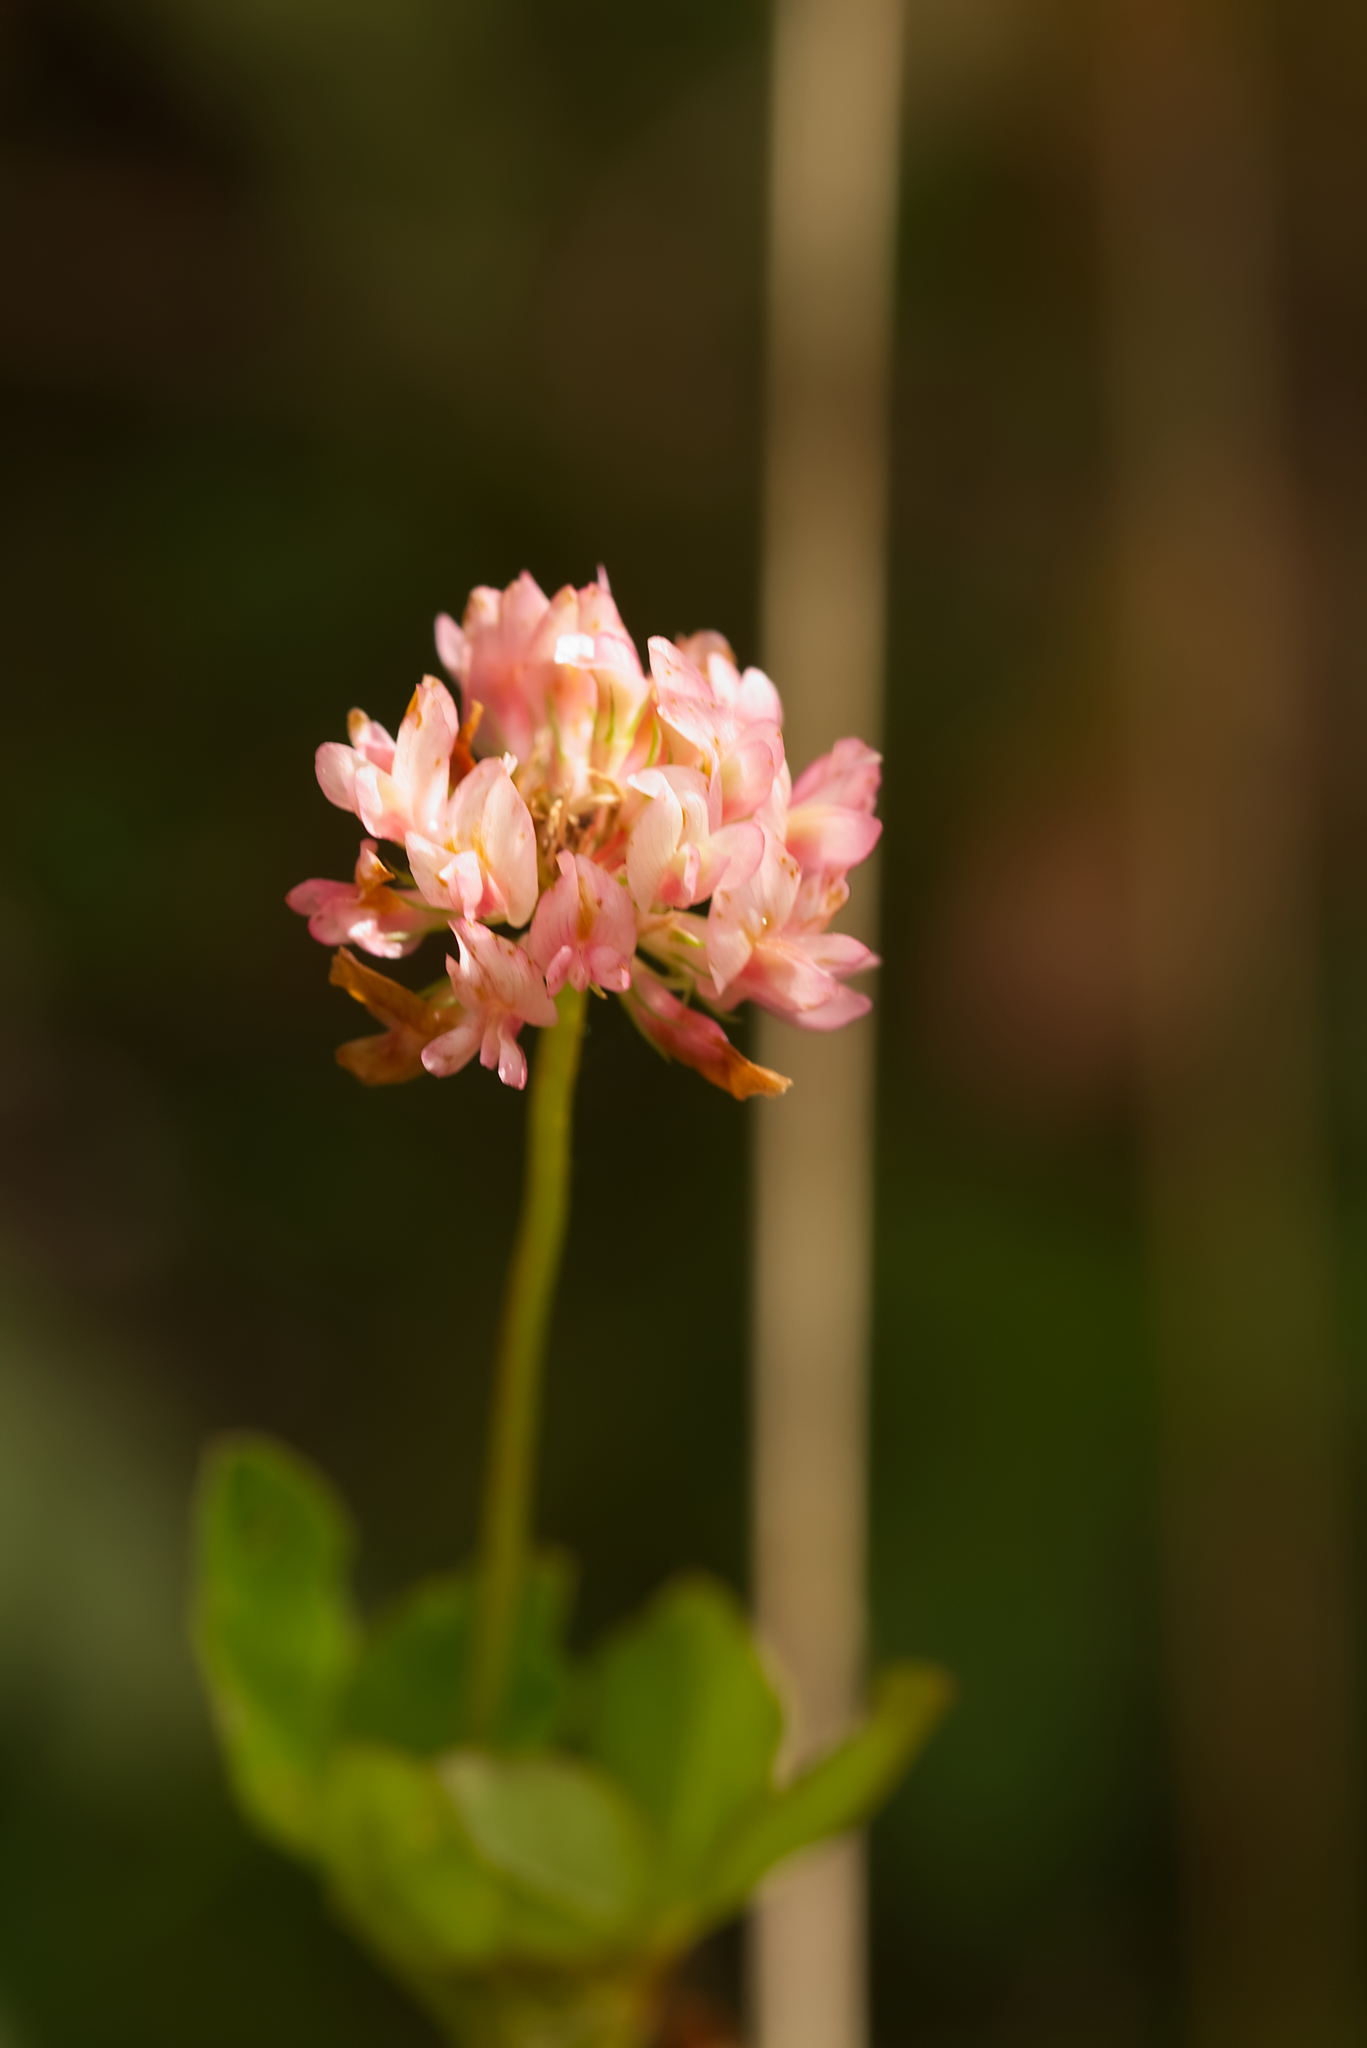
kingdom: Plantae
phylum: Tracheophyta
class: Magnoliopsida
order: Fabales
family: Fabaceae
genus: Trifolium
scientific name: Trifolium hybridum
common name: Alsike clover
